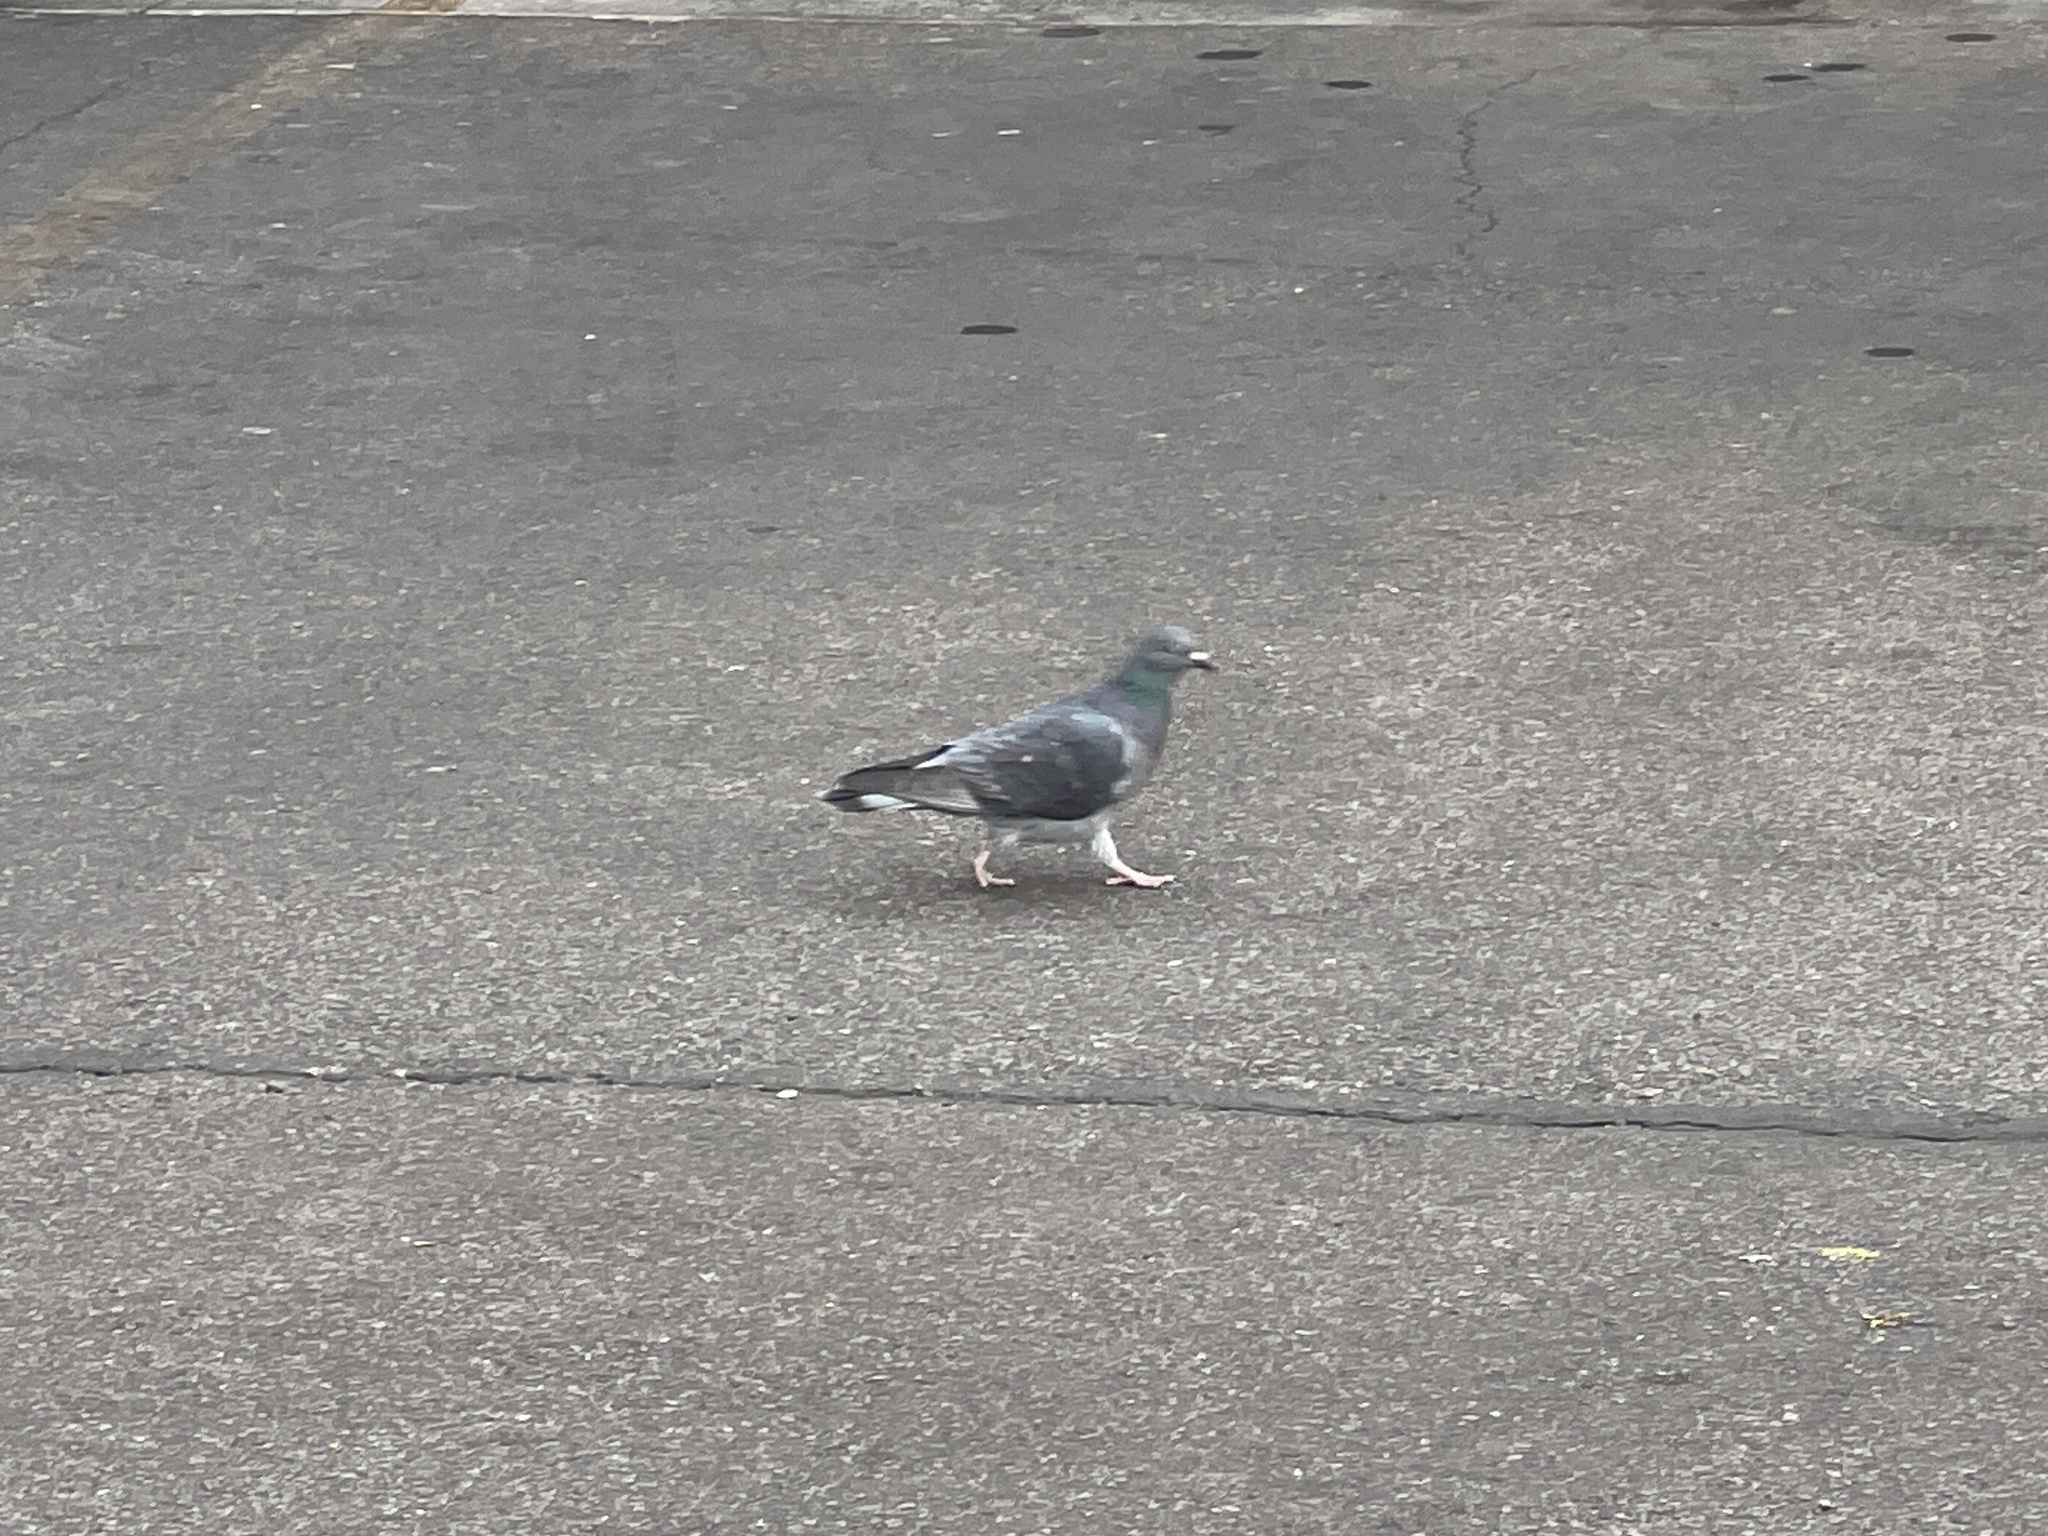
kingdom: Animalia
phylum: Chordata
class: Aves
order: Columbiformes
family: Columbidae
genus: Columba
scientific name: Columba livia
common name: Rock pigeon
